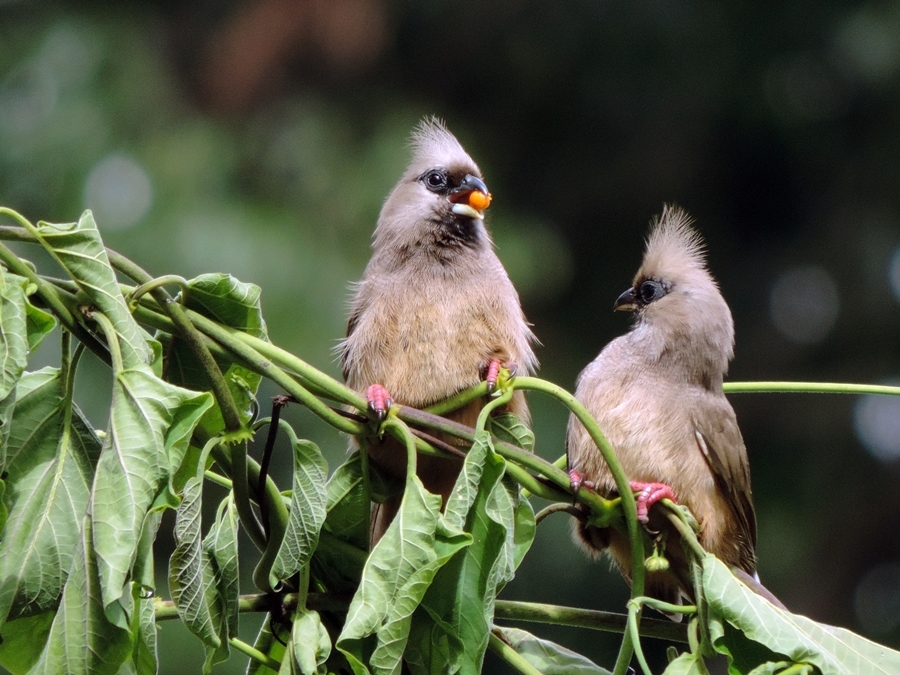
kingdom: Animalia
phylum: Chordata
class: Aves
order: Coliiformes
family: Coliidae
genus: Colius
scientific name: Colius striatus
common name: Speckled mousebird
